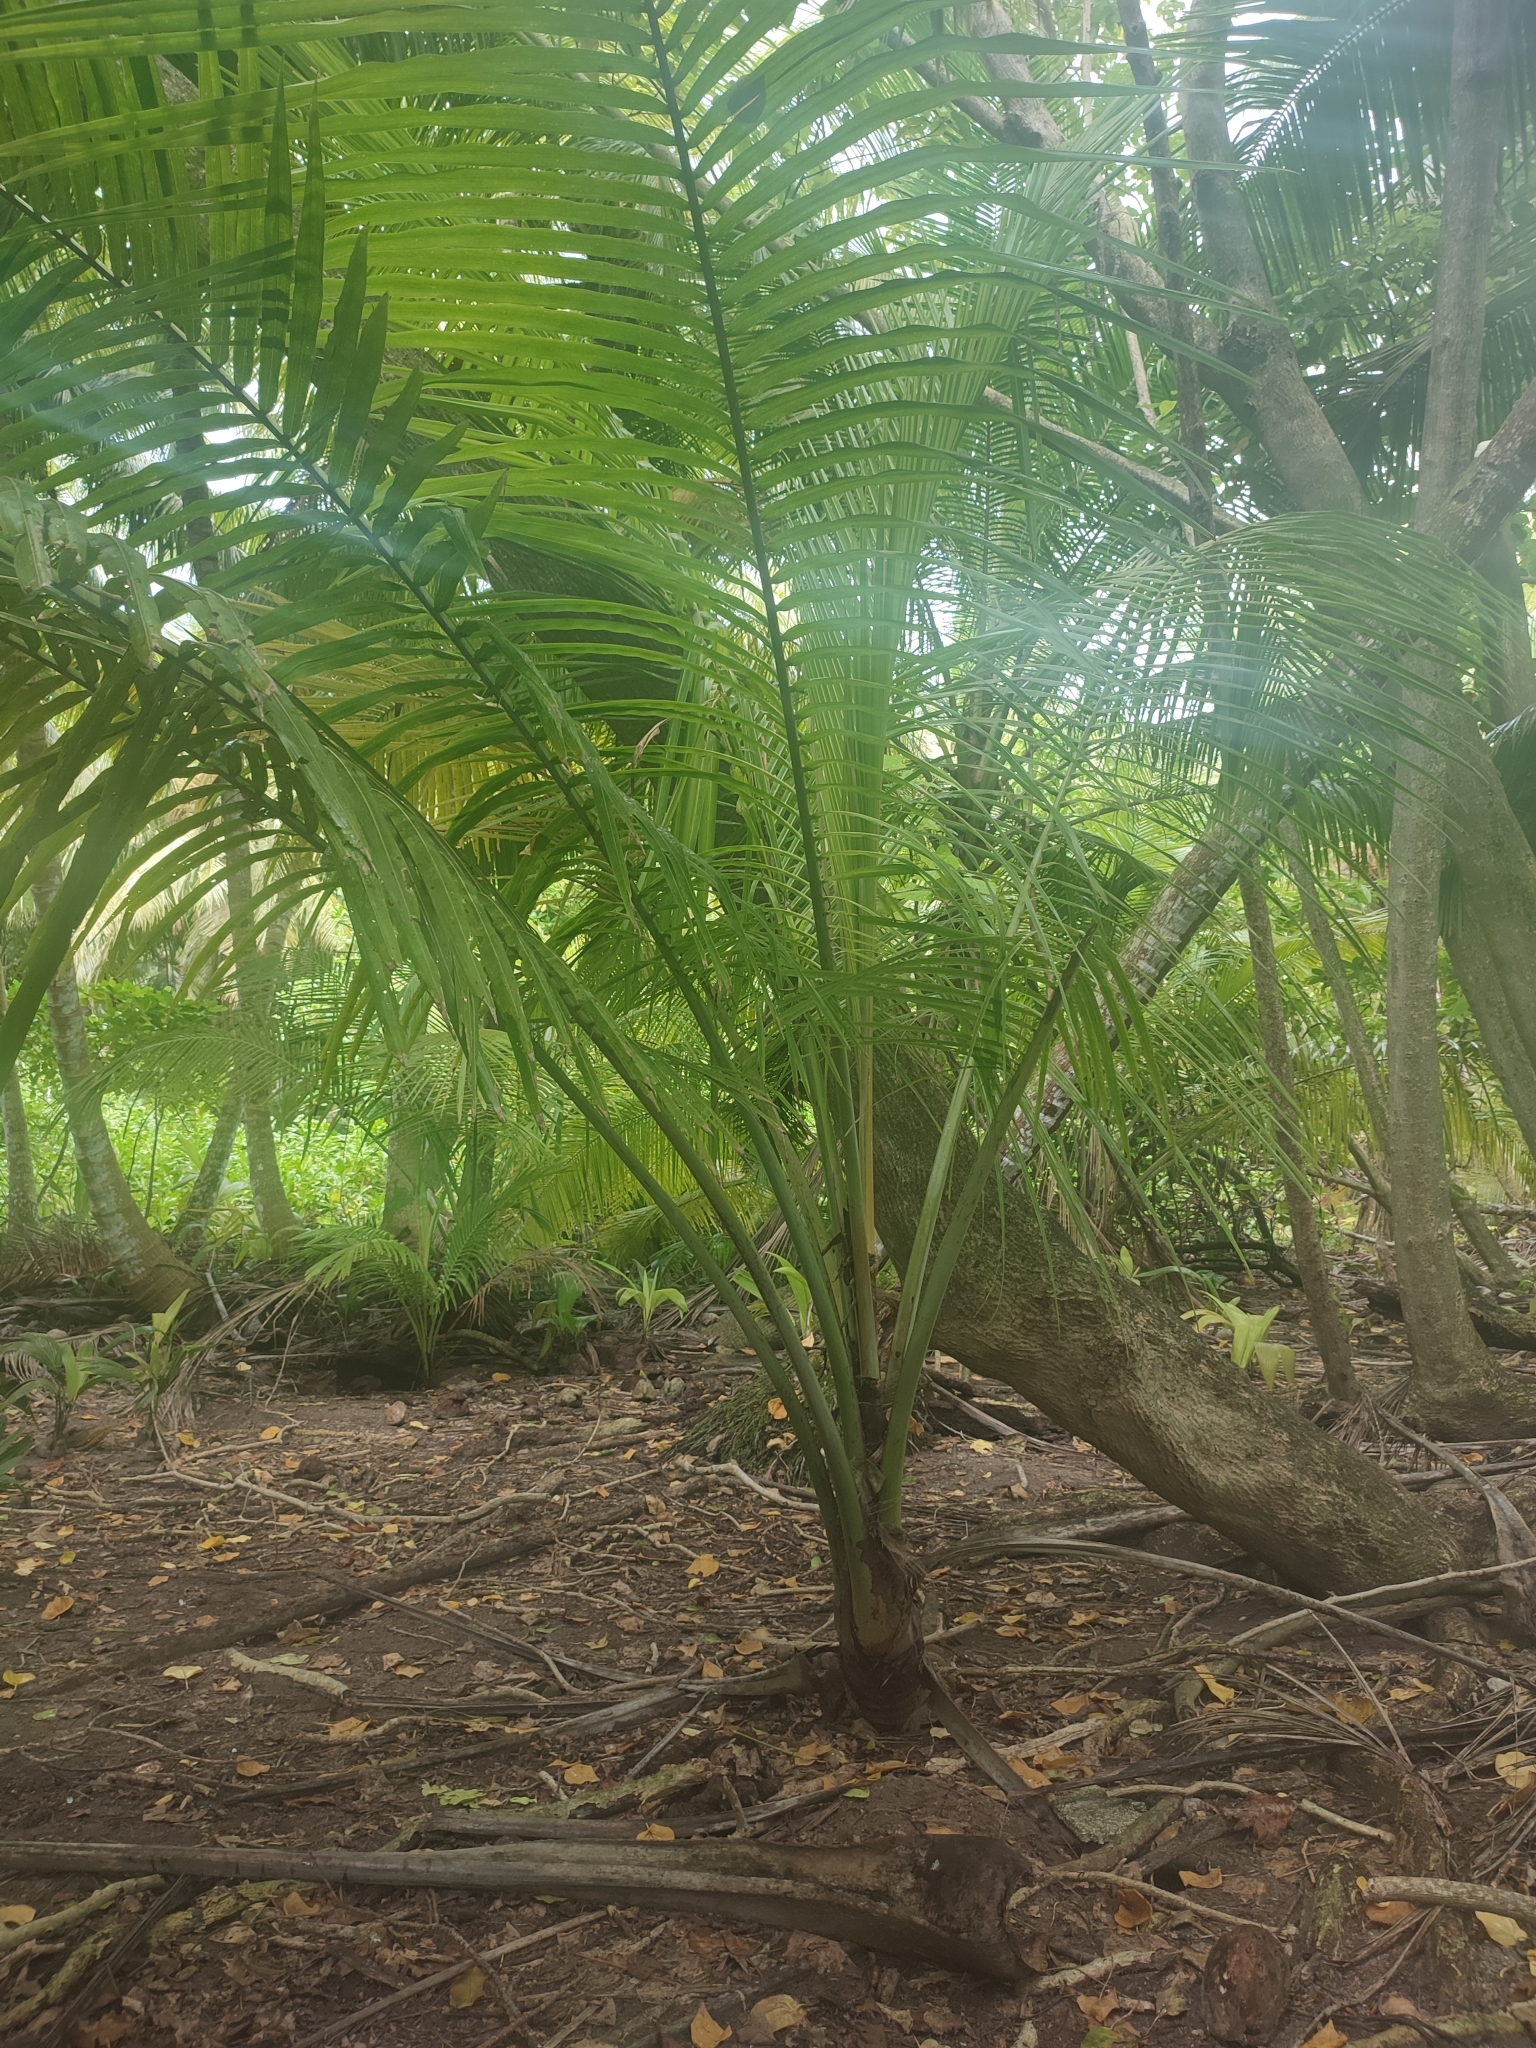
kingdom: Plantae
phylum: Tracheophyta
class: Liliopsida
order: Arecales
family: Arecaceae
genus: Cocos
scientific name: Cocos nucifera
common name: Coconut palm
